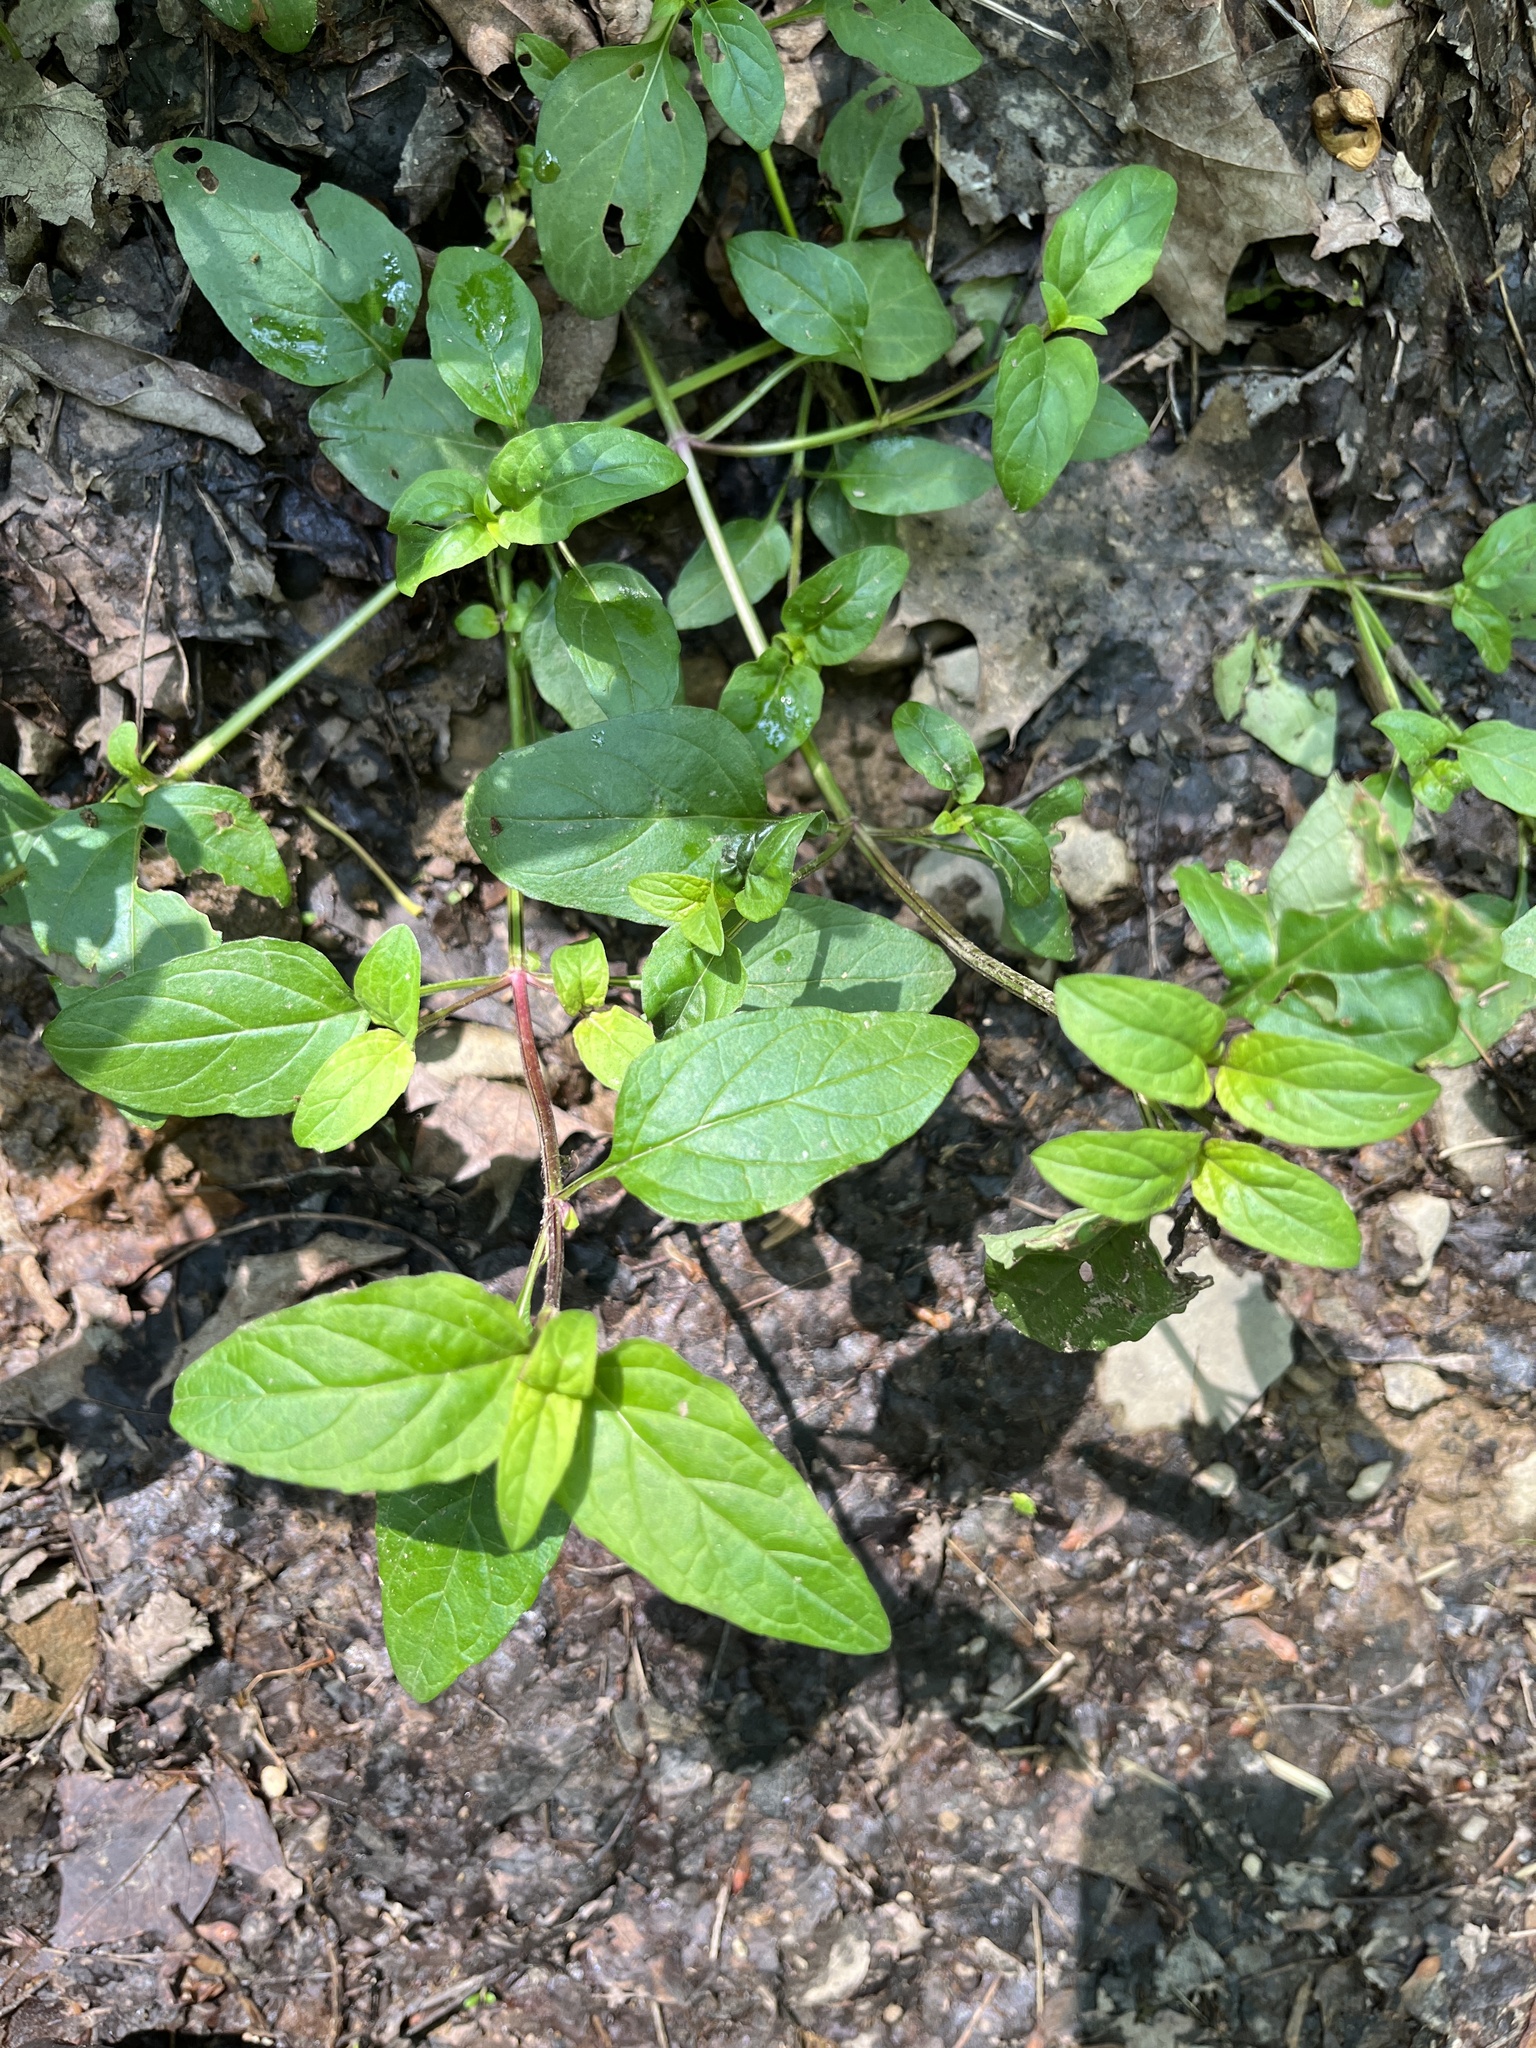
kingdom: Plantae
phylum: Tracheophyta
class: Magnoliopsida
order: Lamiales
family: Lamiaceae
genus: Prunella
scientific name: Prunella vulgaris
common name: Heal-all
